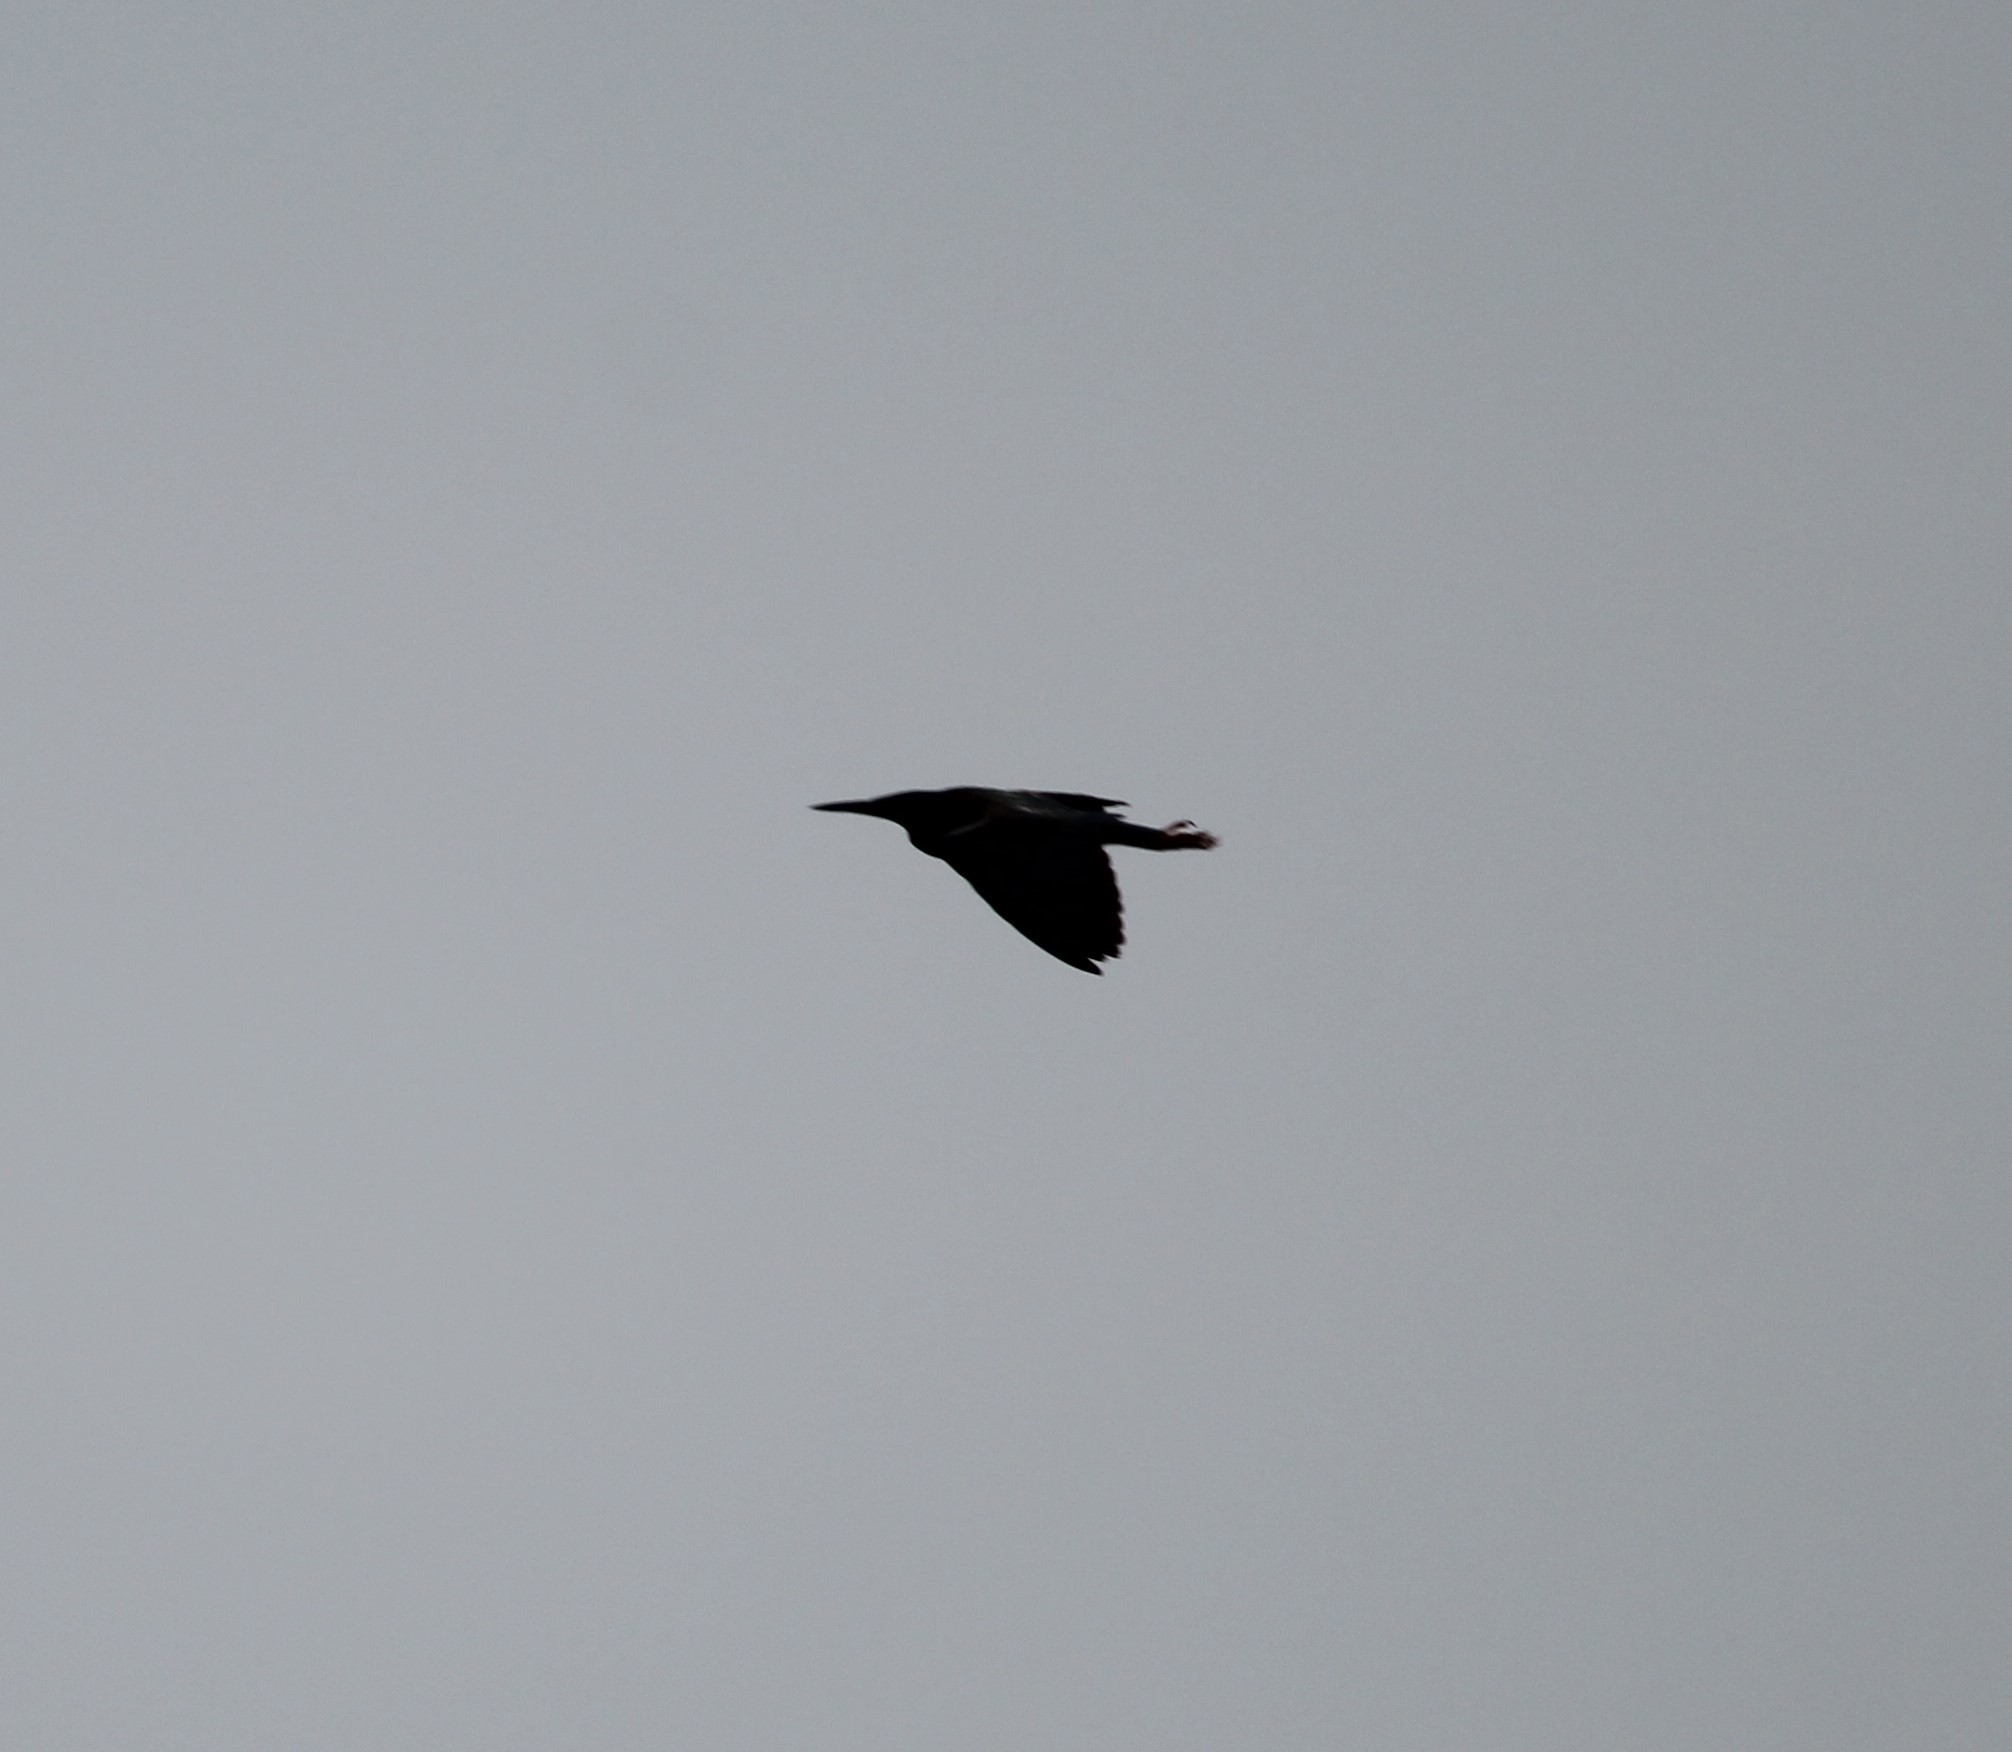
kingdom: Animalia
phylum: Chordata
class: Aves
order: Pelecaniformes
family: Ardeidae
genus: Butorides
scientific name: Butorides virescens
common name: Green heron
